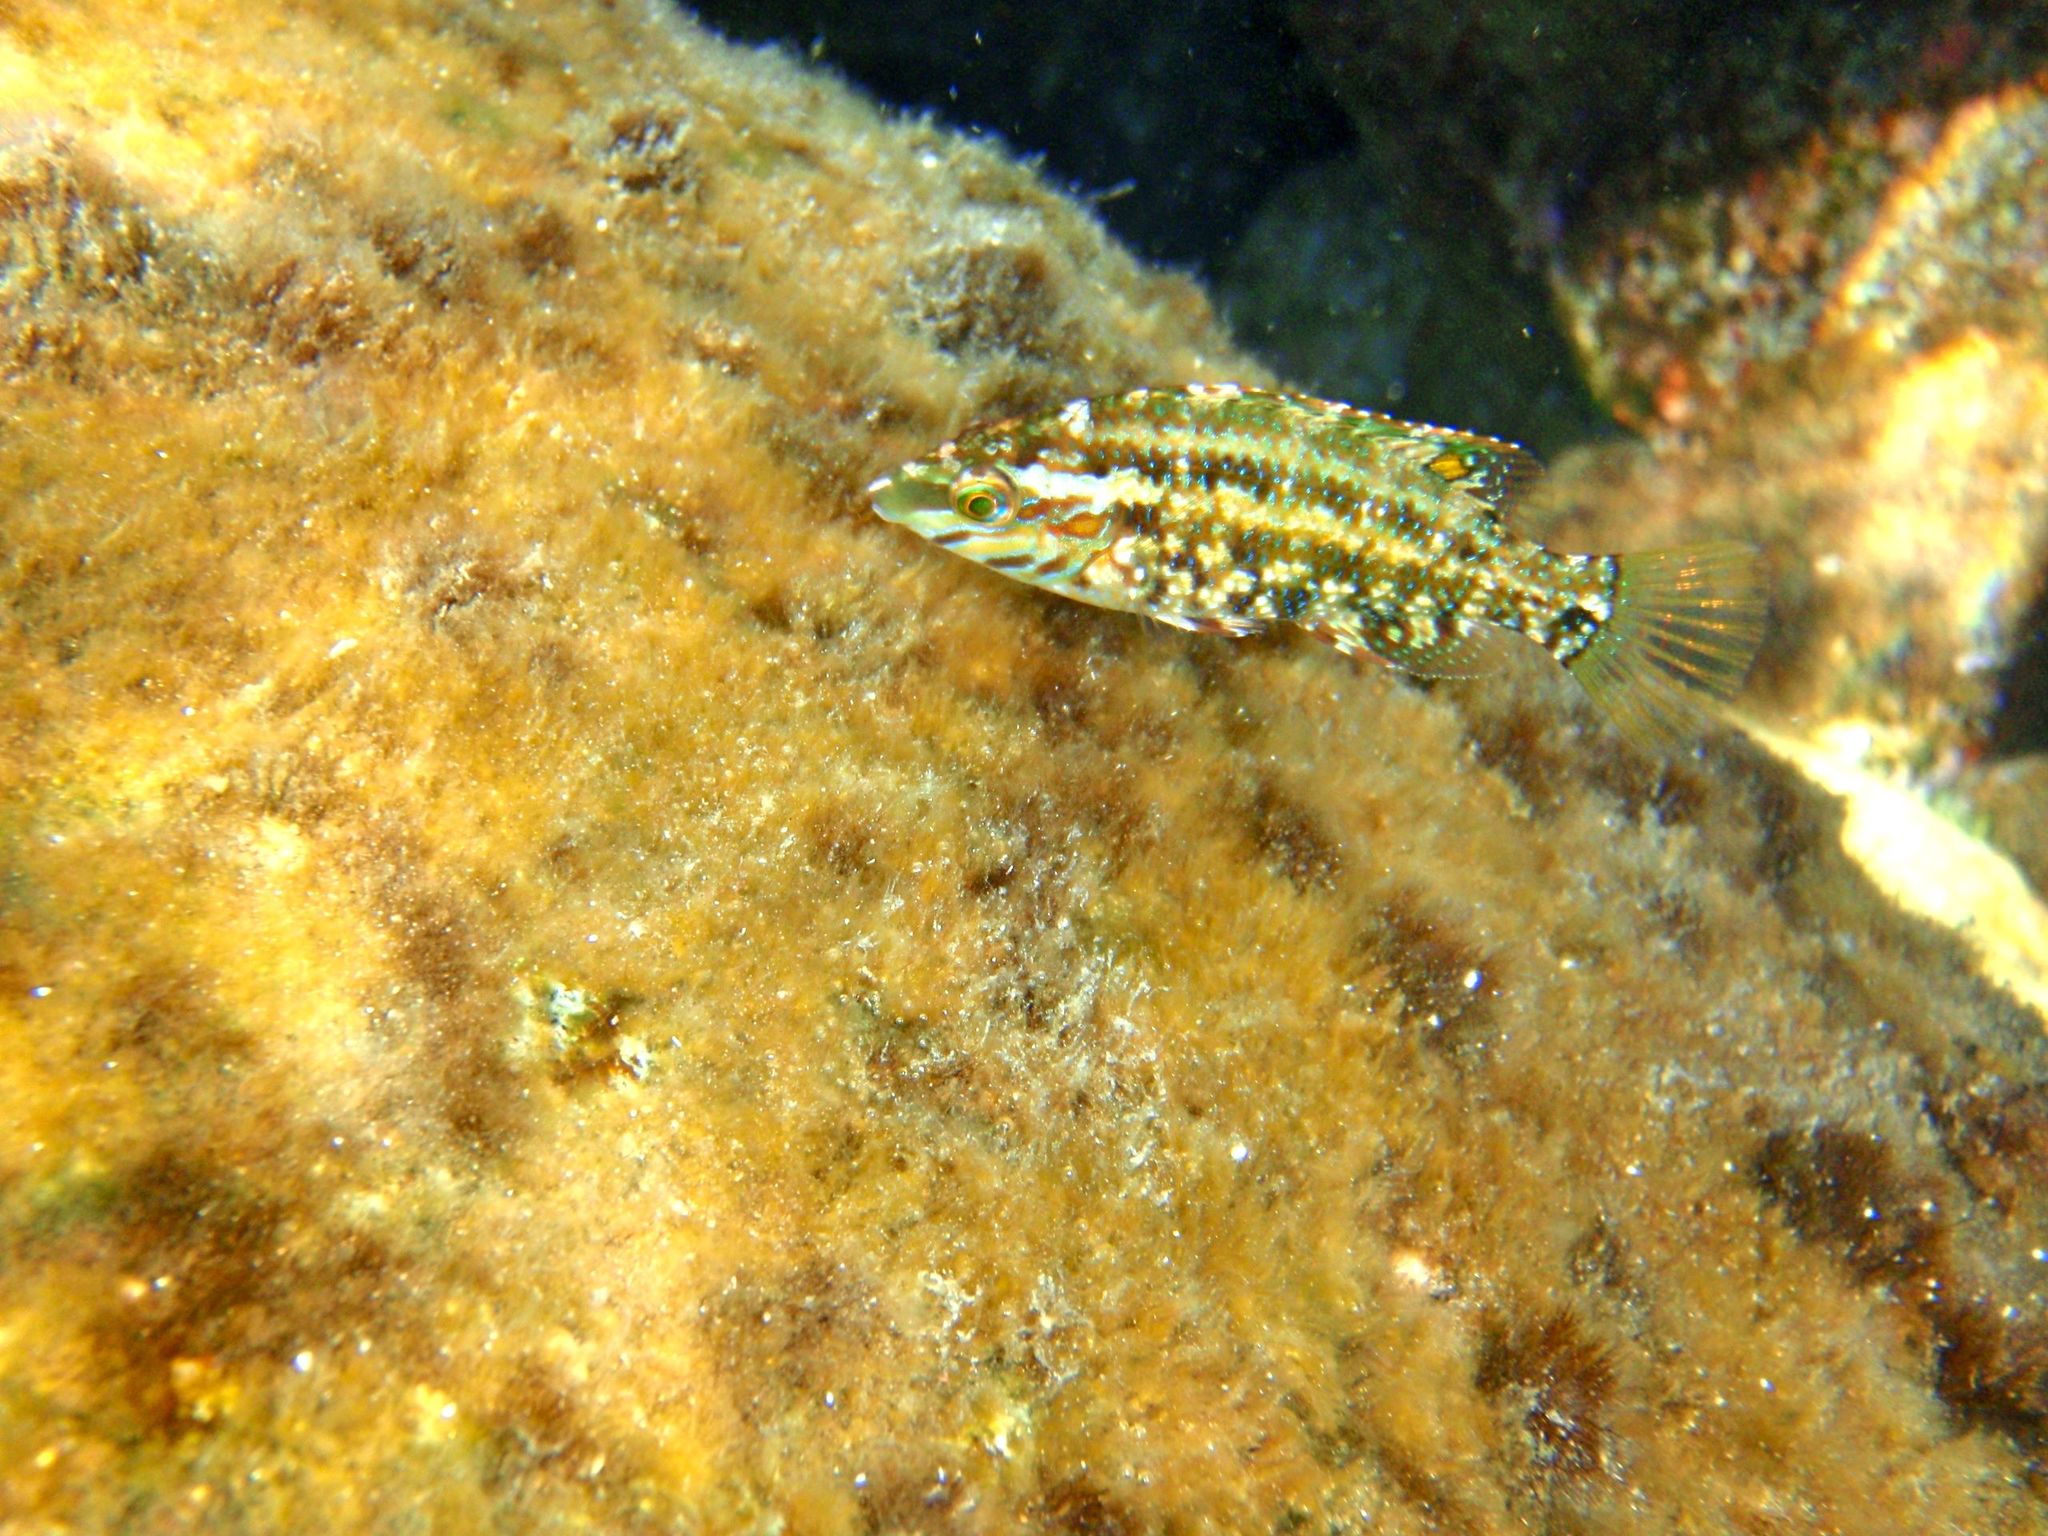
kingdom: Animalia
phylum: Chordata
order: Perciformes
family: Labridae
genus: Symphodus
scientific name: Symphodus roissali
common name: Five-spotted wrasse
